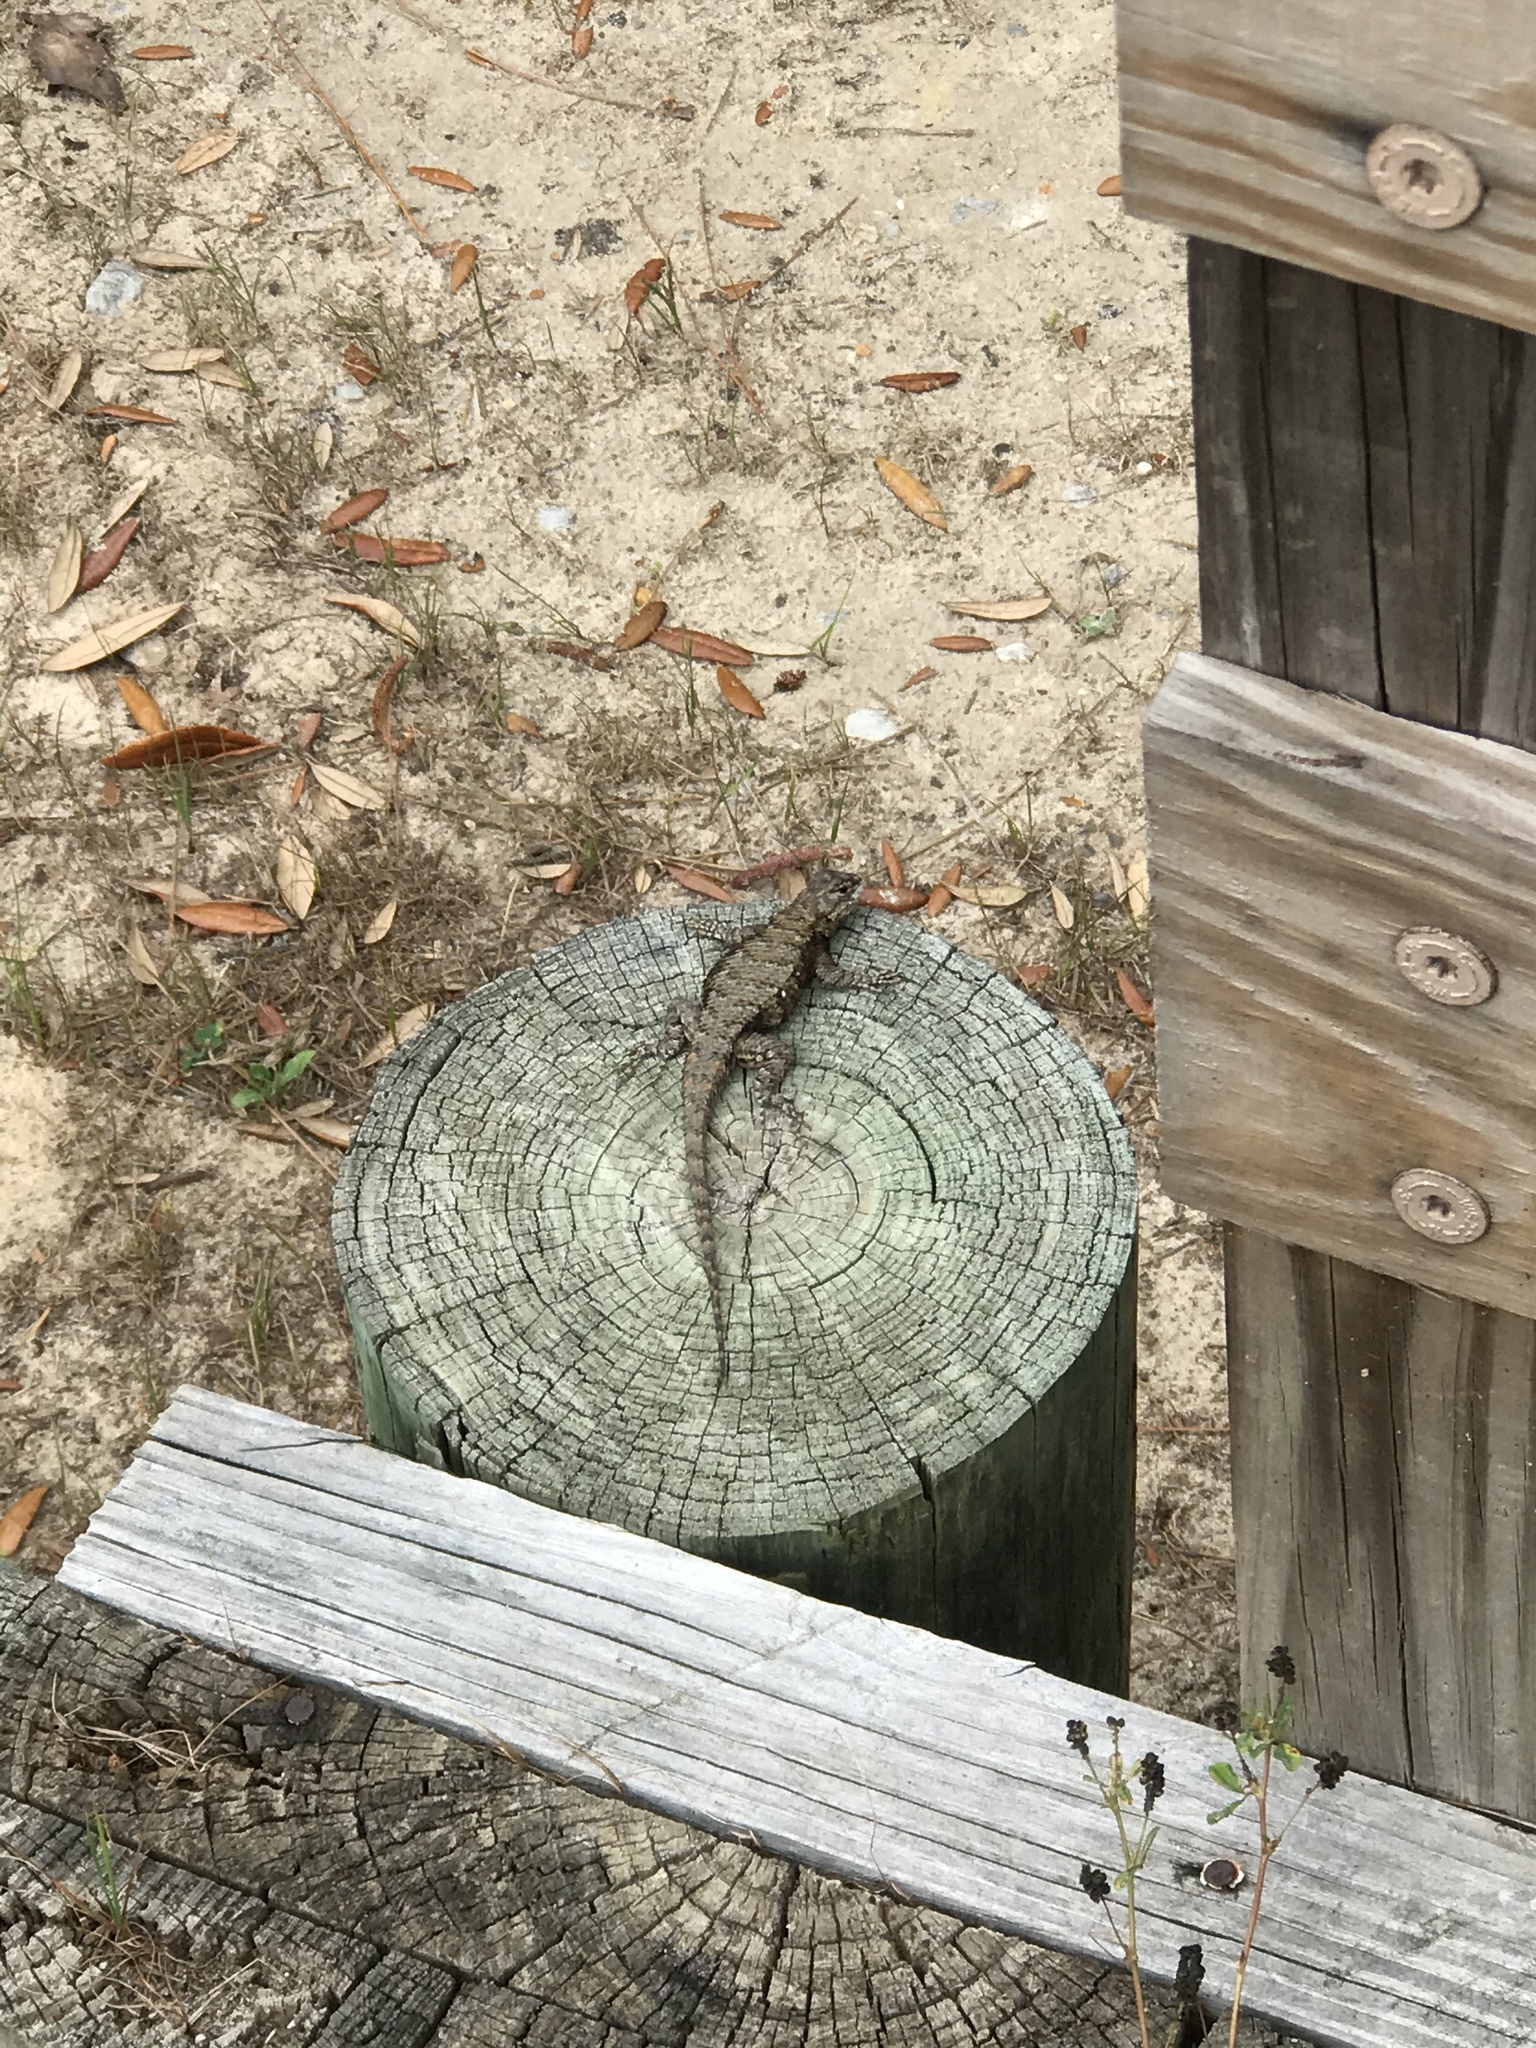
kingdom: Animalia
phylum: Chordata
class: Squamata
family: Phrynosomatidae
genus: Sceloporus
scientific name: Sceloporus undulatus
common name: Eastern fence lizard
